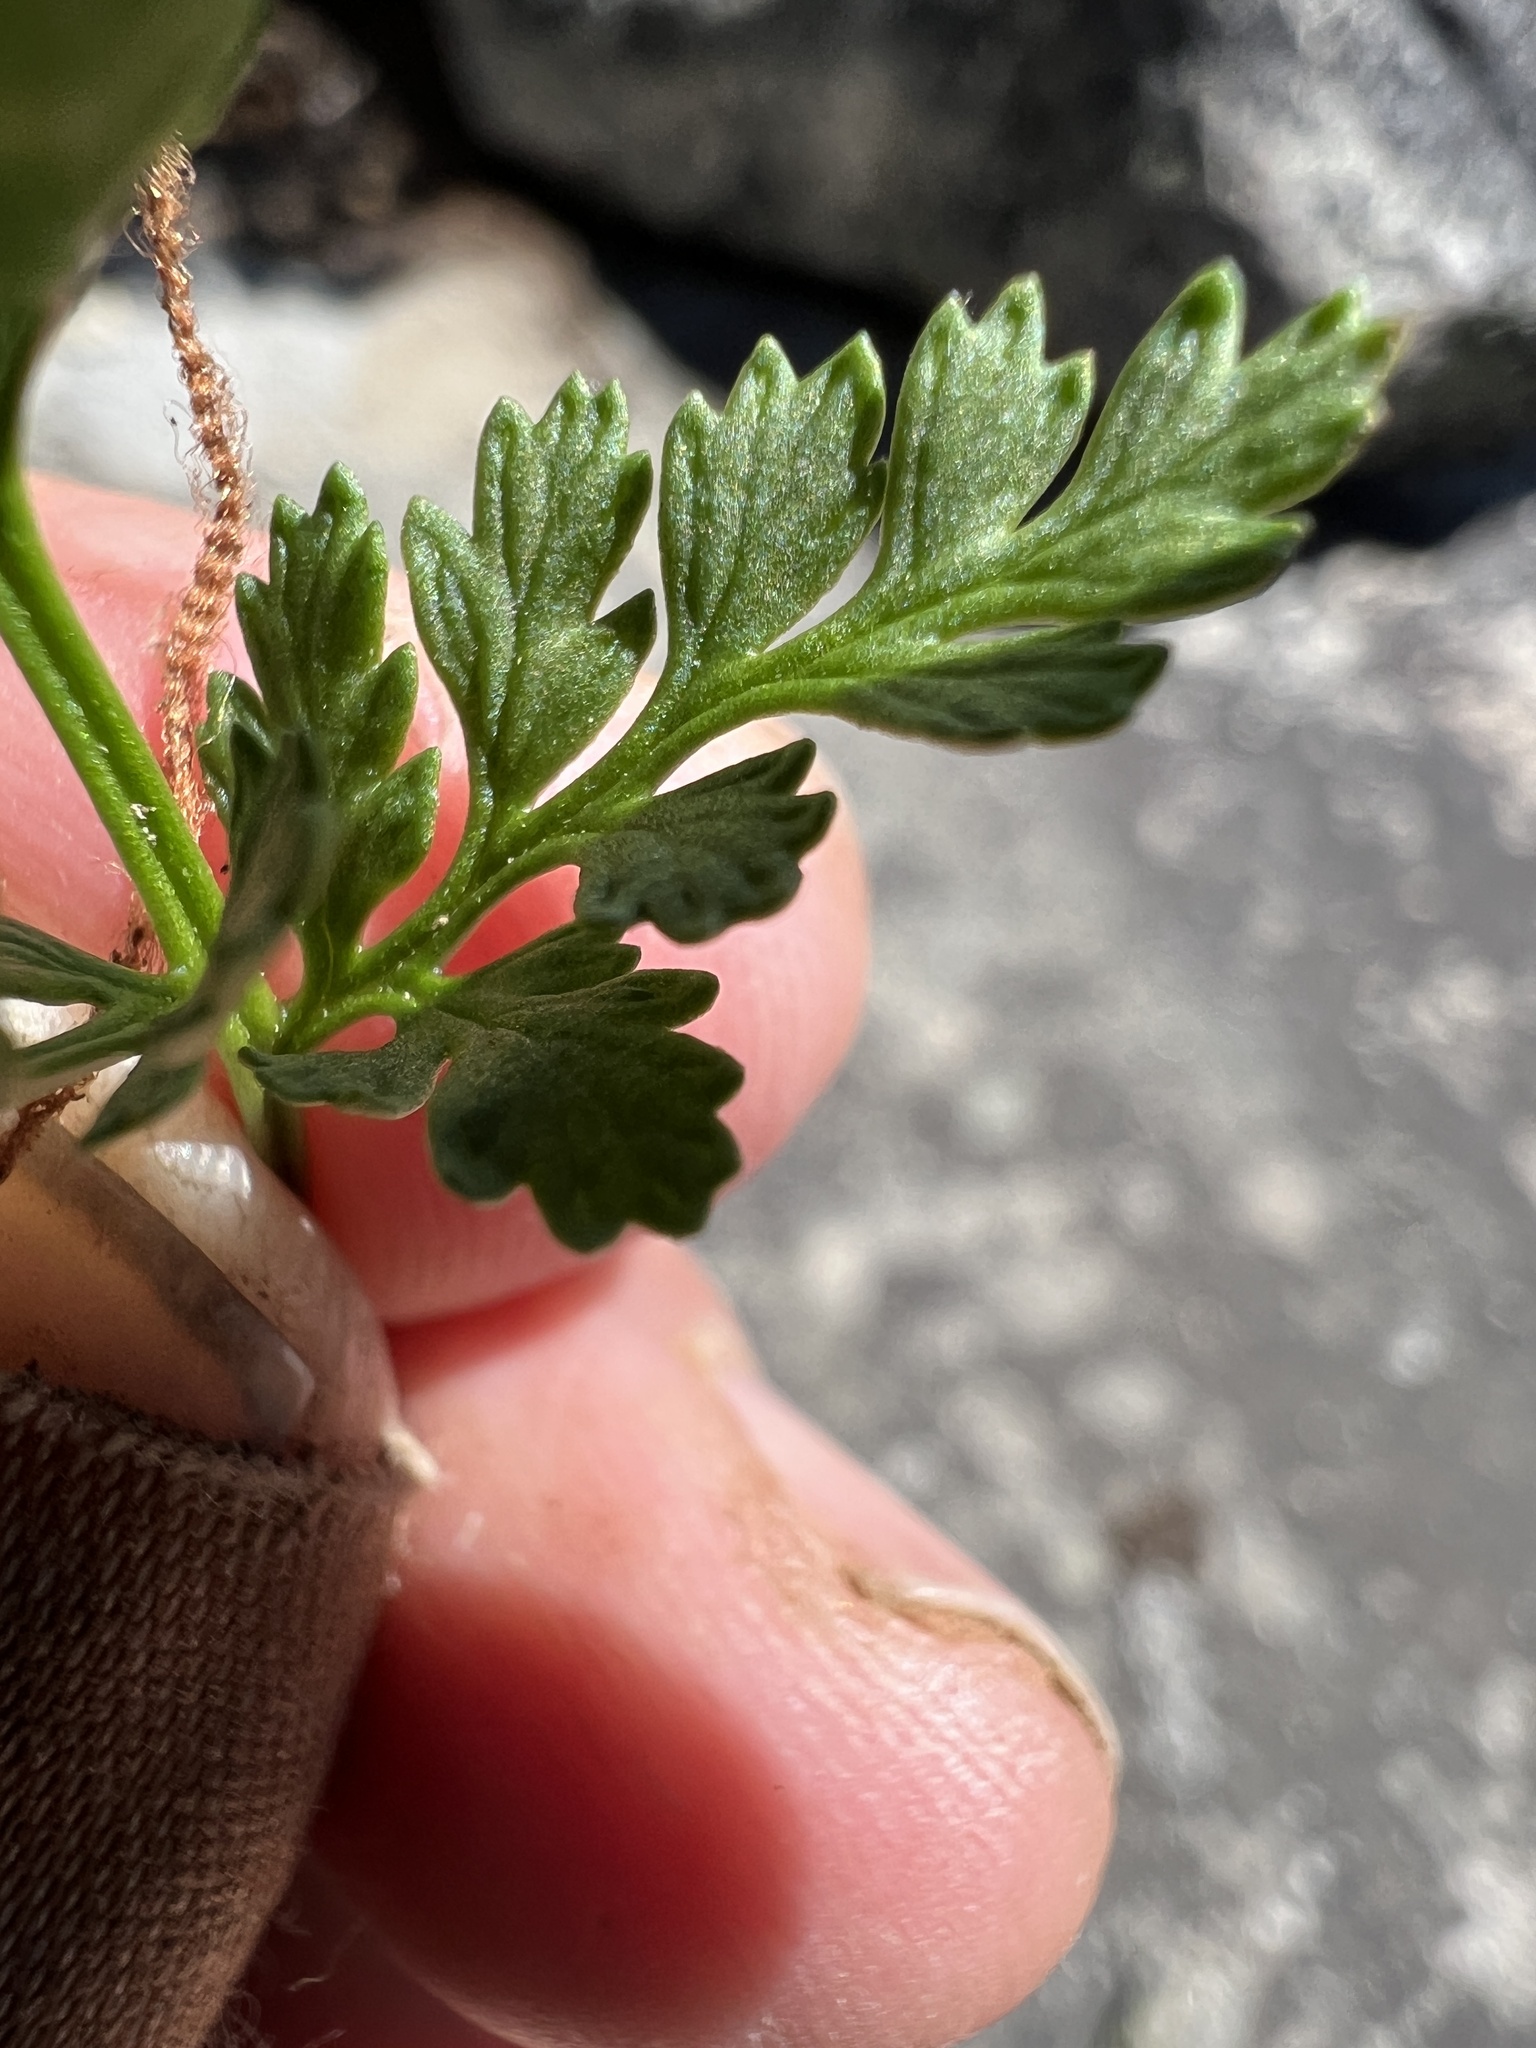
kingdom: Plantae
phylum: Tracheophyta
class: Polypodiopsida
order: Polypodiales
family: Pteridaceae
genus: Cryptogramma
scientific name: Cryptogramma acrostichoides
